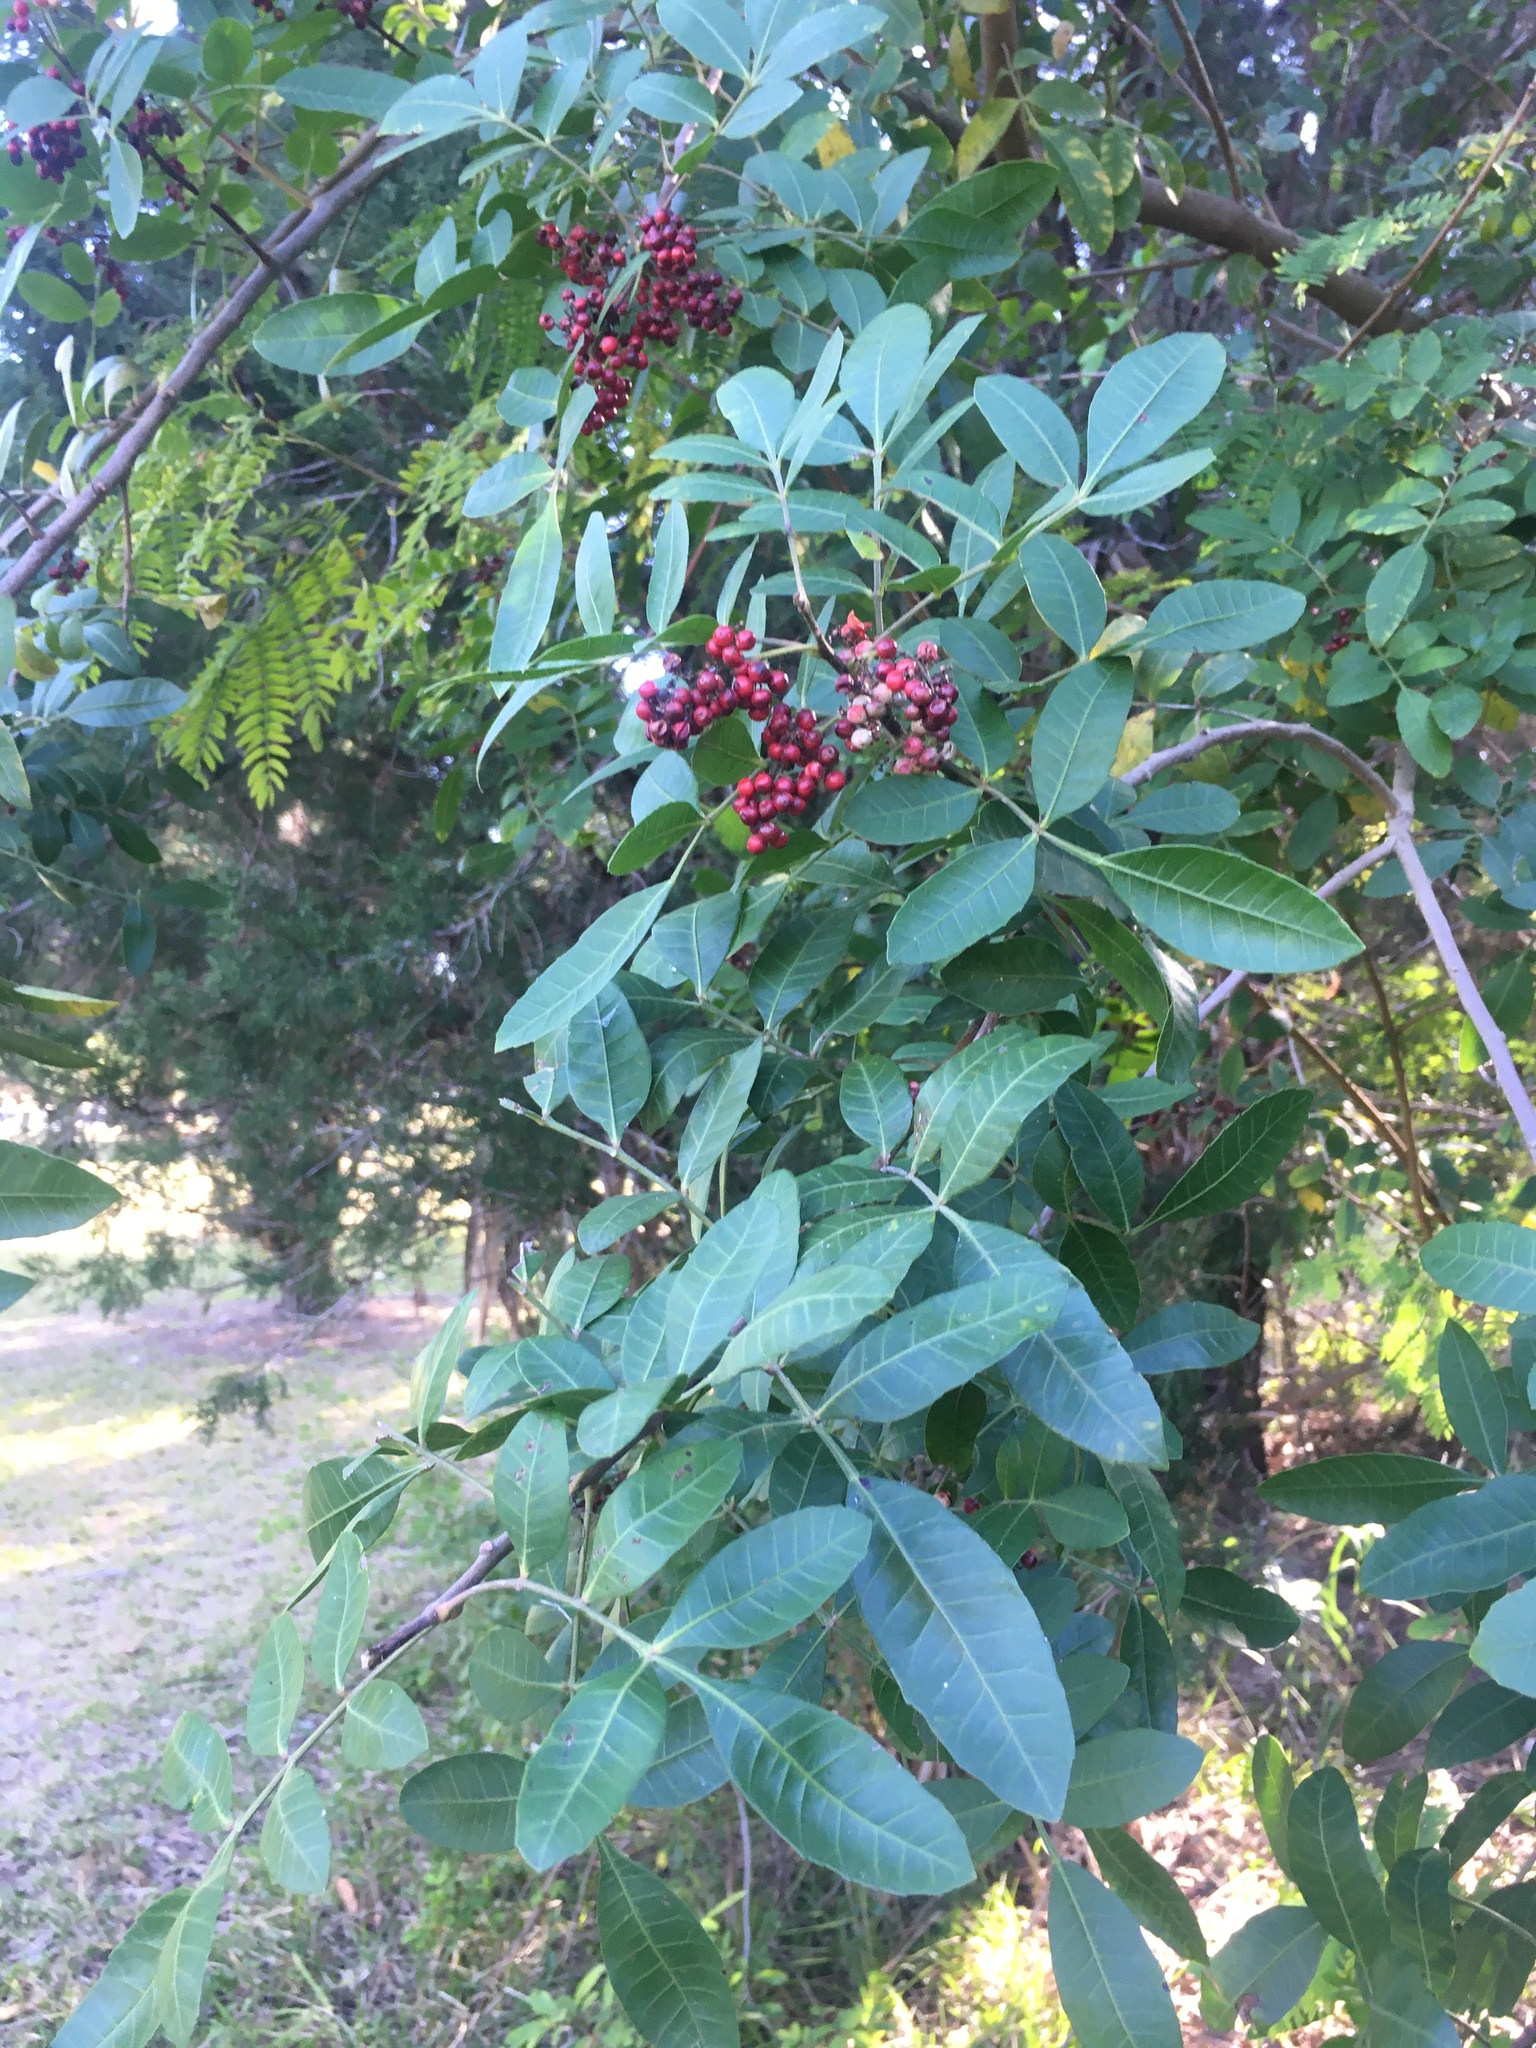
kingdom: Plantae
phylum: Tracheophyta
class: Magnoliopsida
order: Sapindales
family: Anacardiaceae
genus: Schinus
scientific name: Schinus terebinthifolia
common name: Brazilian peppertree
